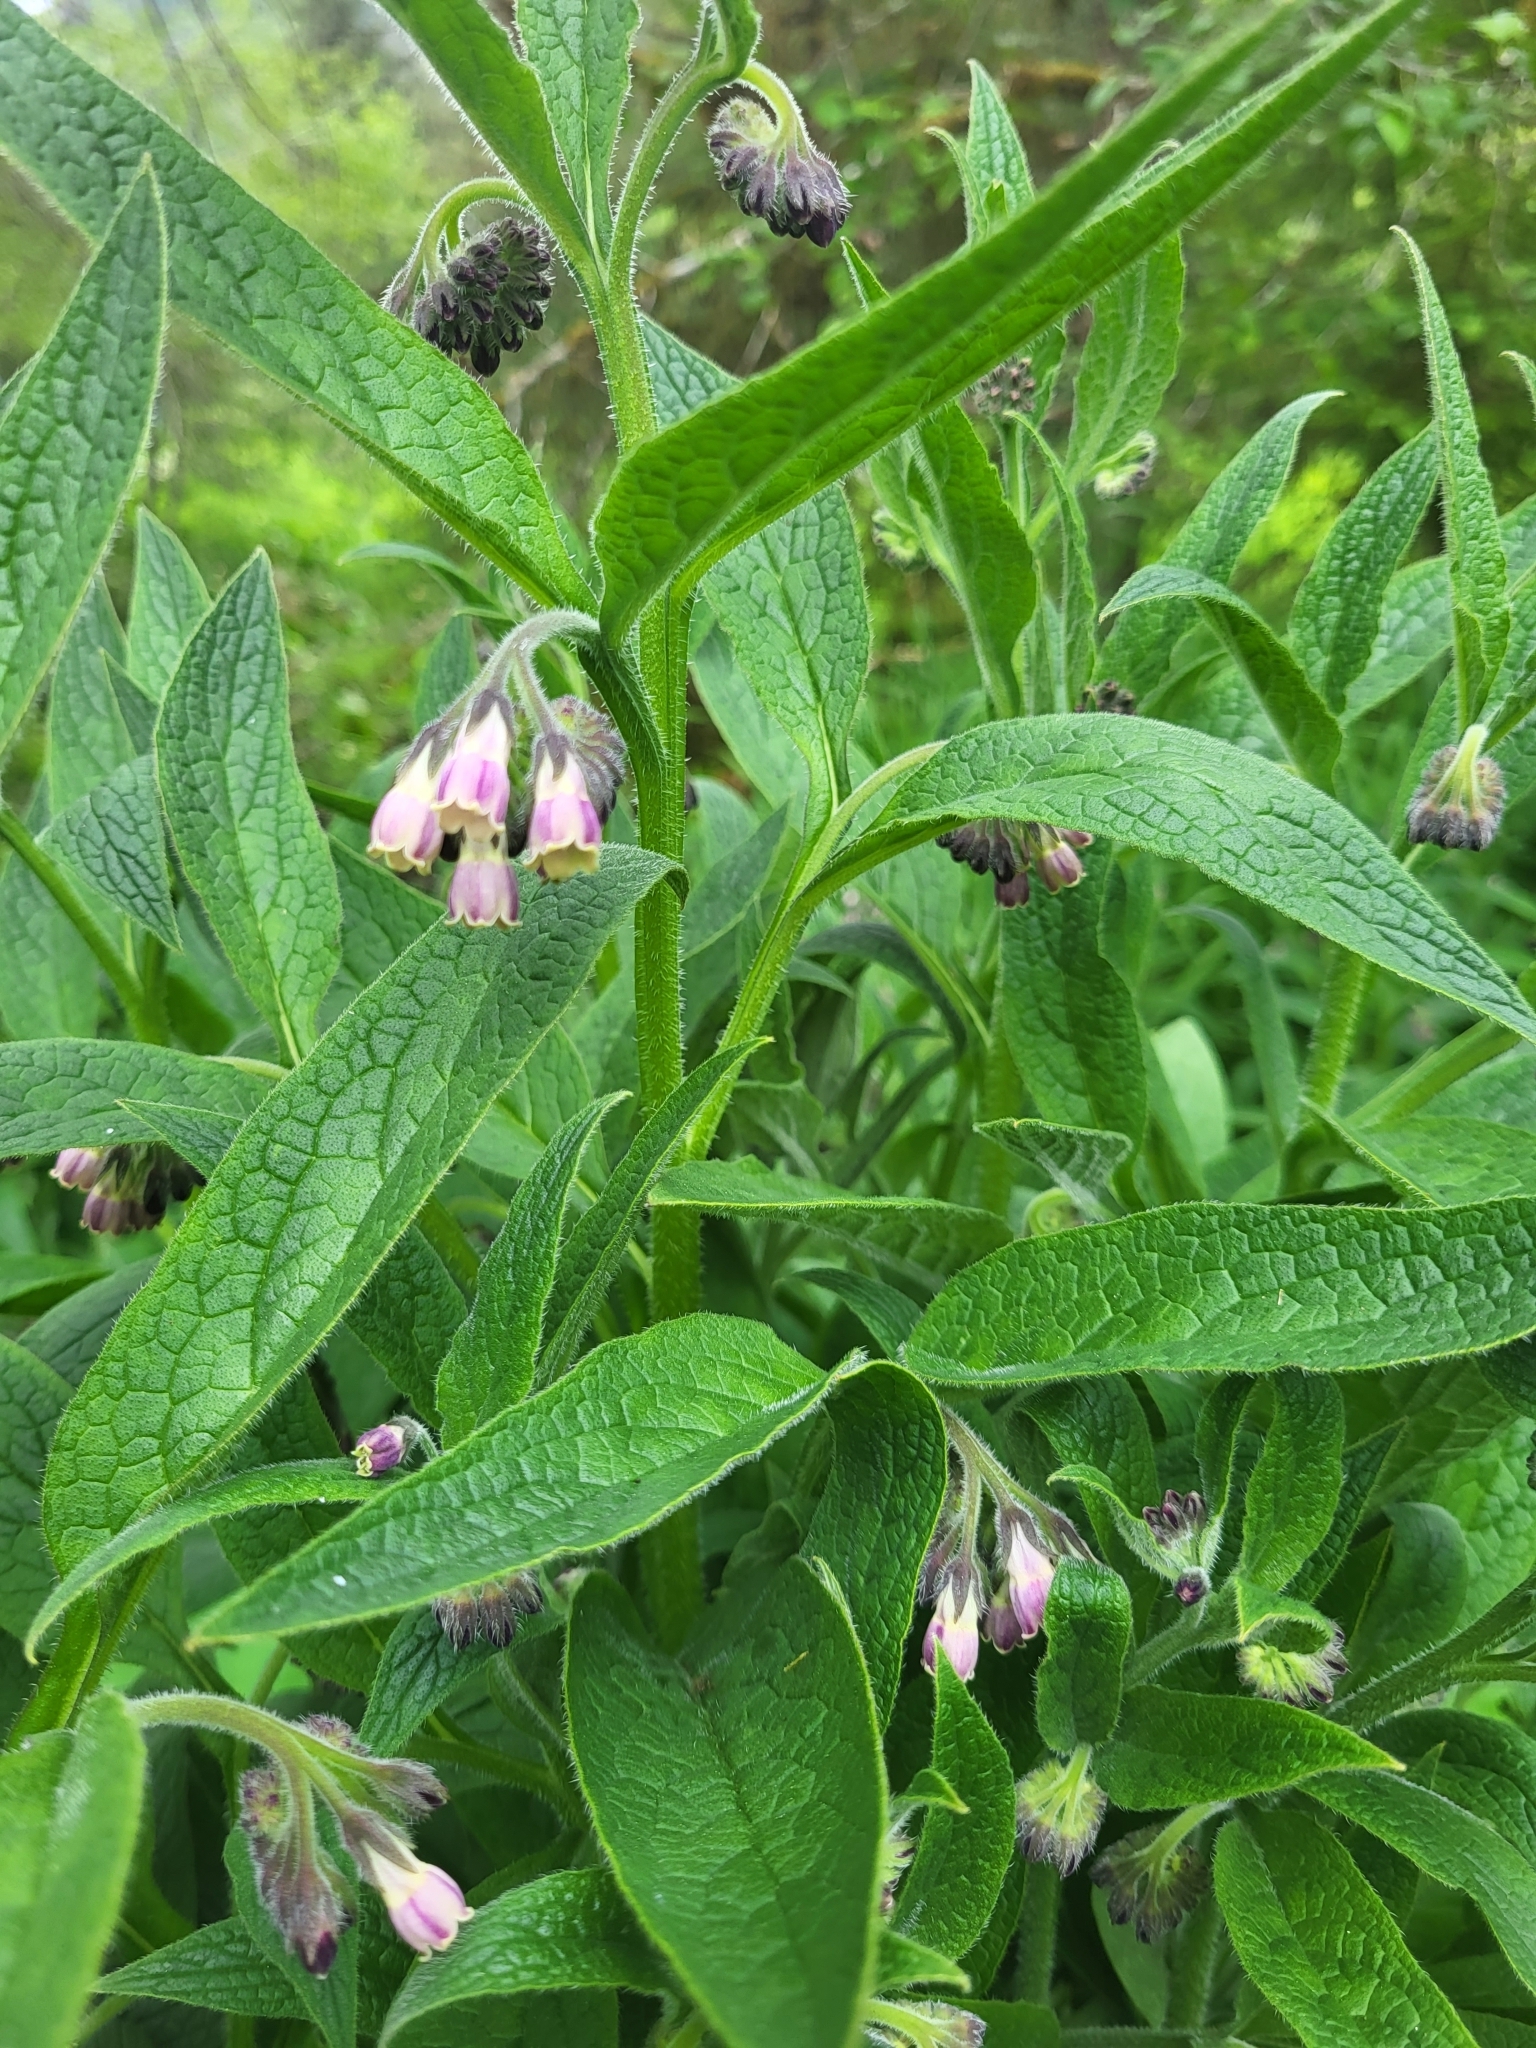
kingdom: Plantae
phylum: Tracheophyta
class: Magnoliopsida
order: Boraginales
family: Boraginaceae
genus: Symphytum
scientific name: Symphytum officinale
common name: Common comfrey
